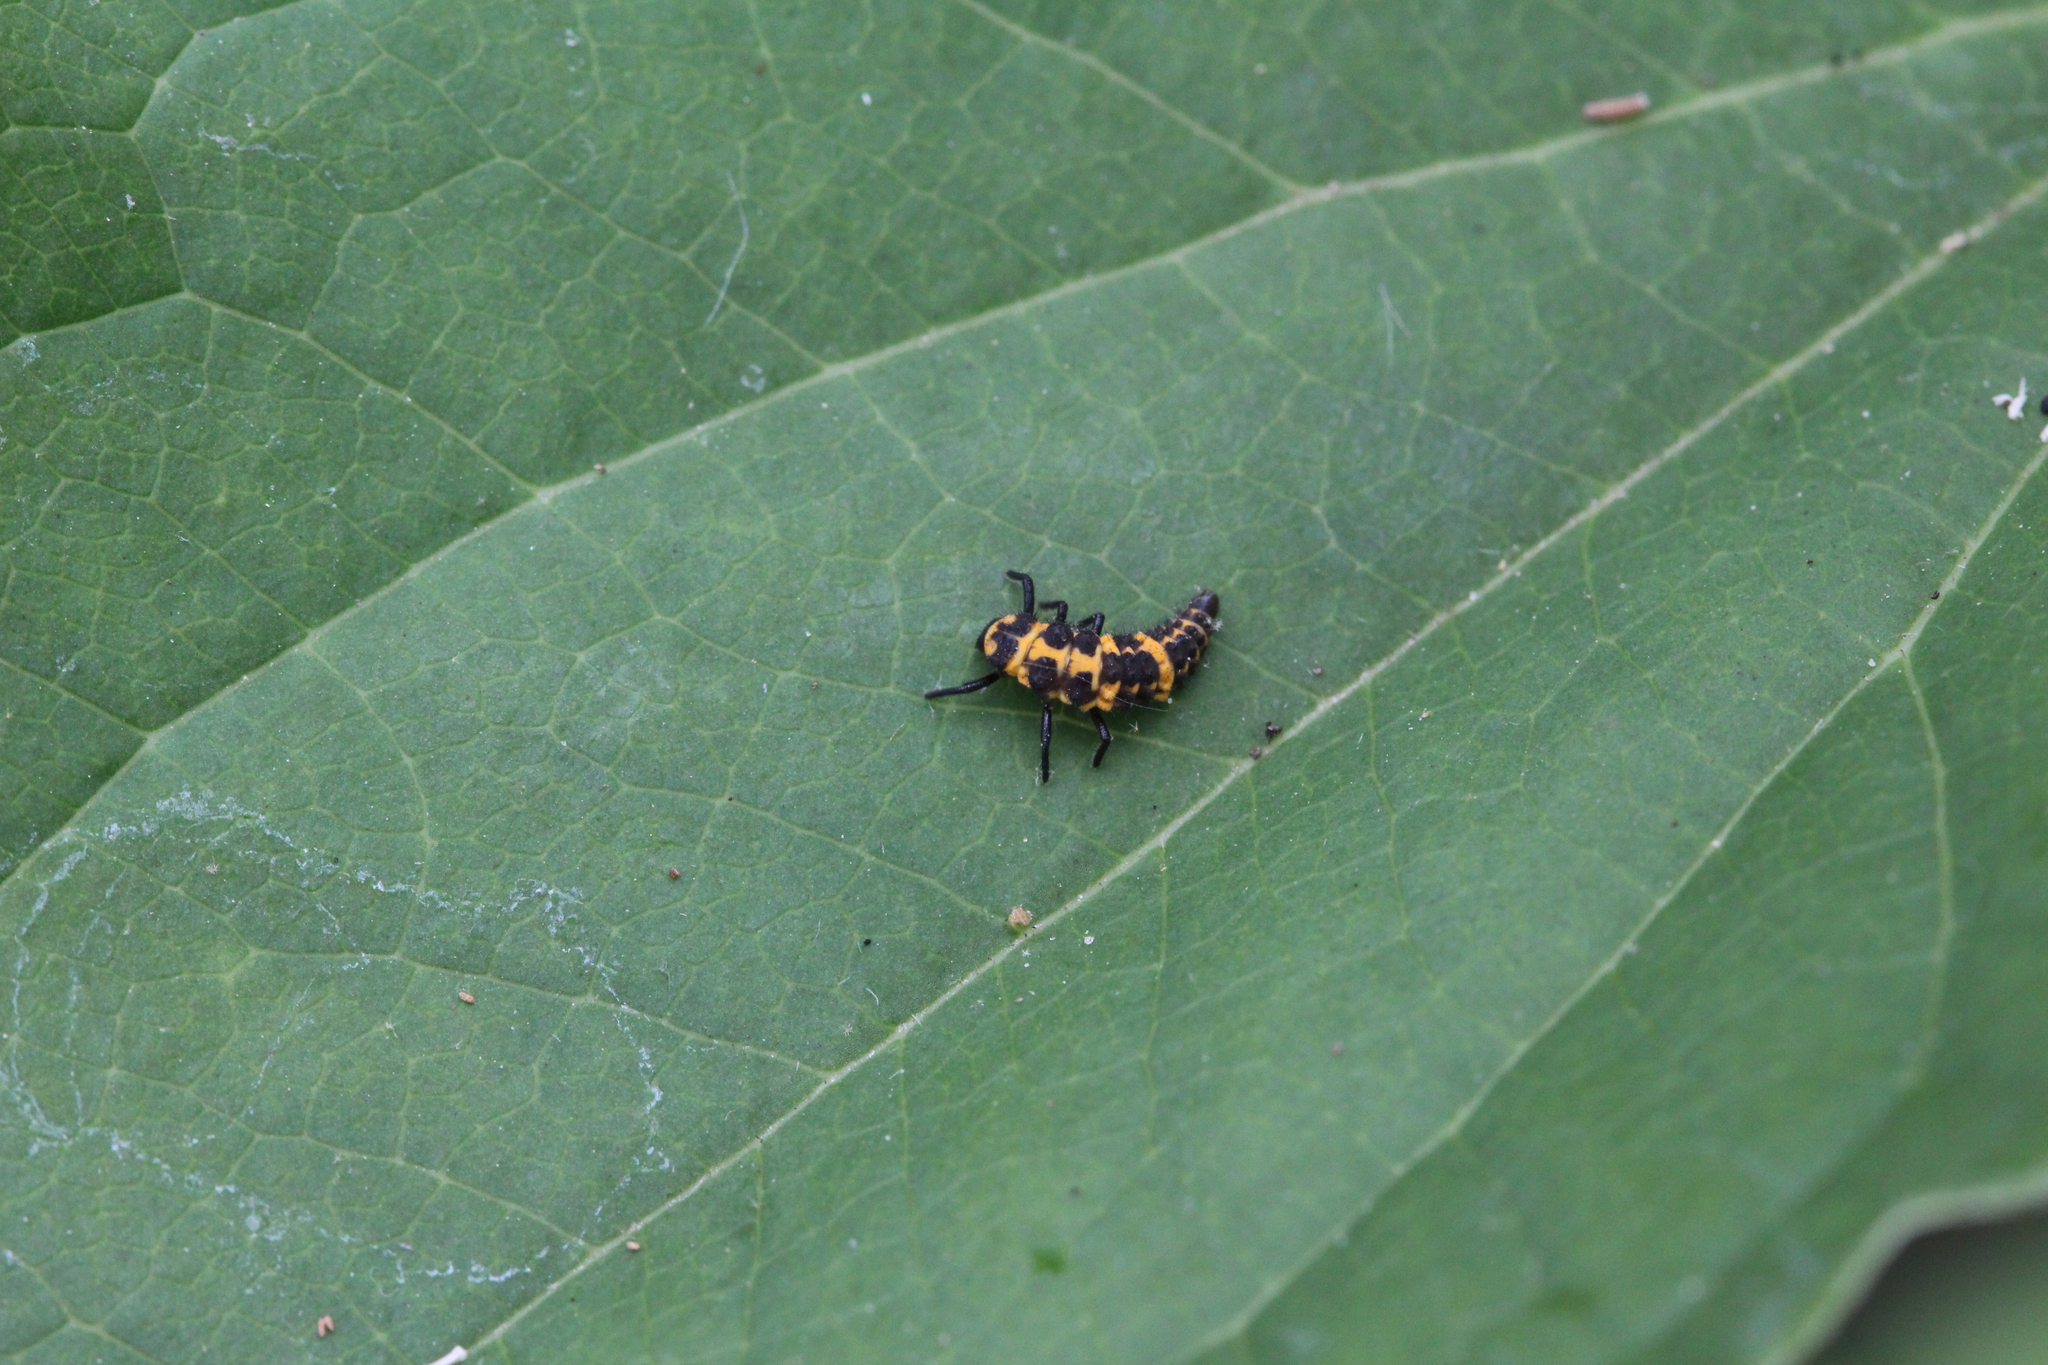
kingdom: Animalia
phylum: Arthropoda
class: Insecta
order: Coleoptera
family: Coccinellidae
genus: Coleomegilla
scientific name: Coleomegilla maculata
